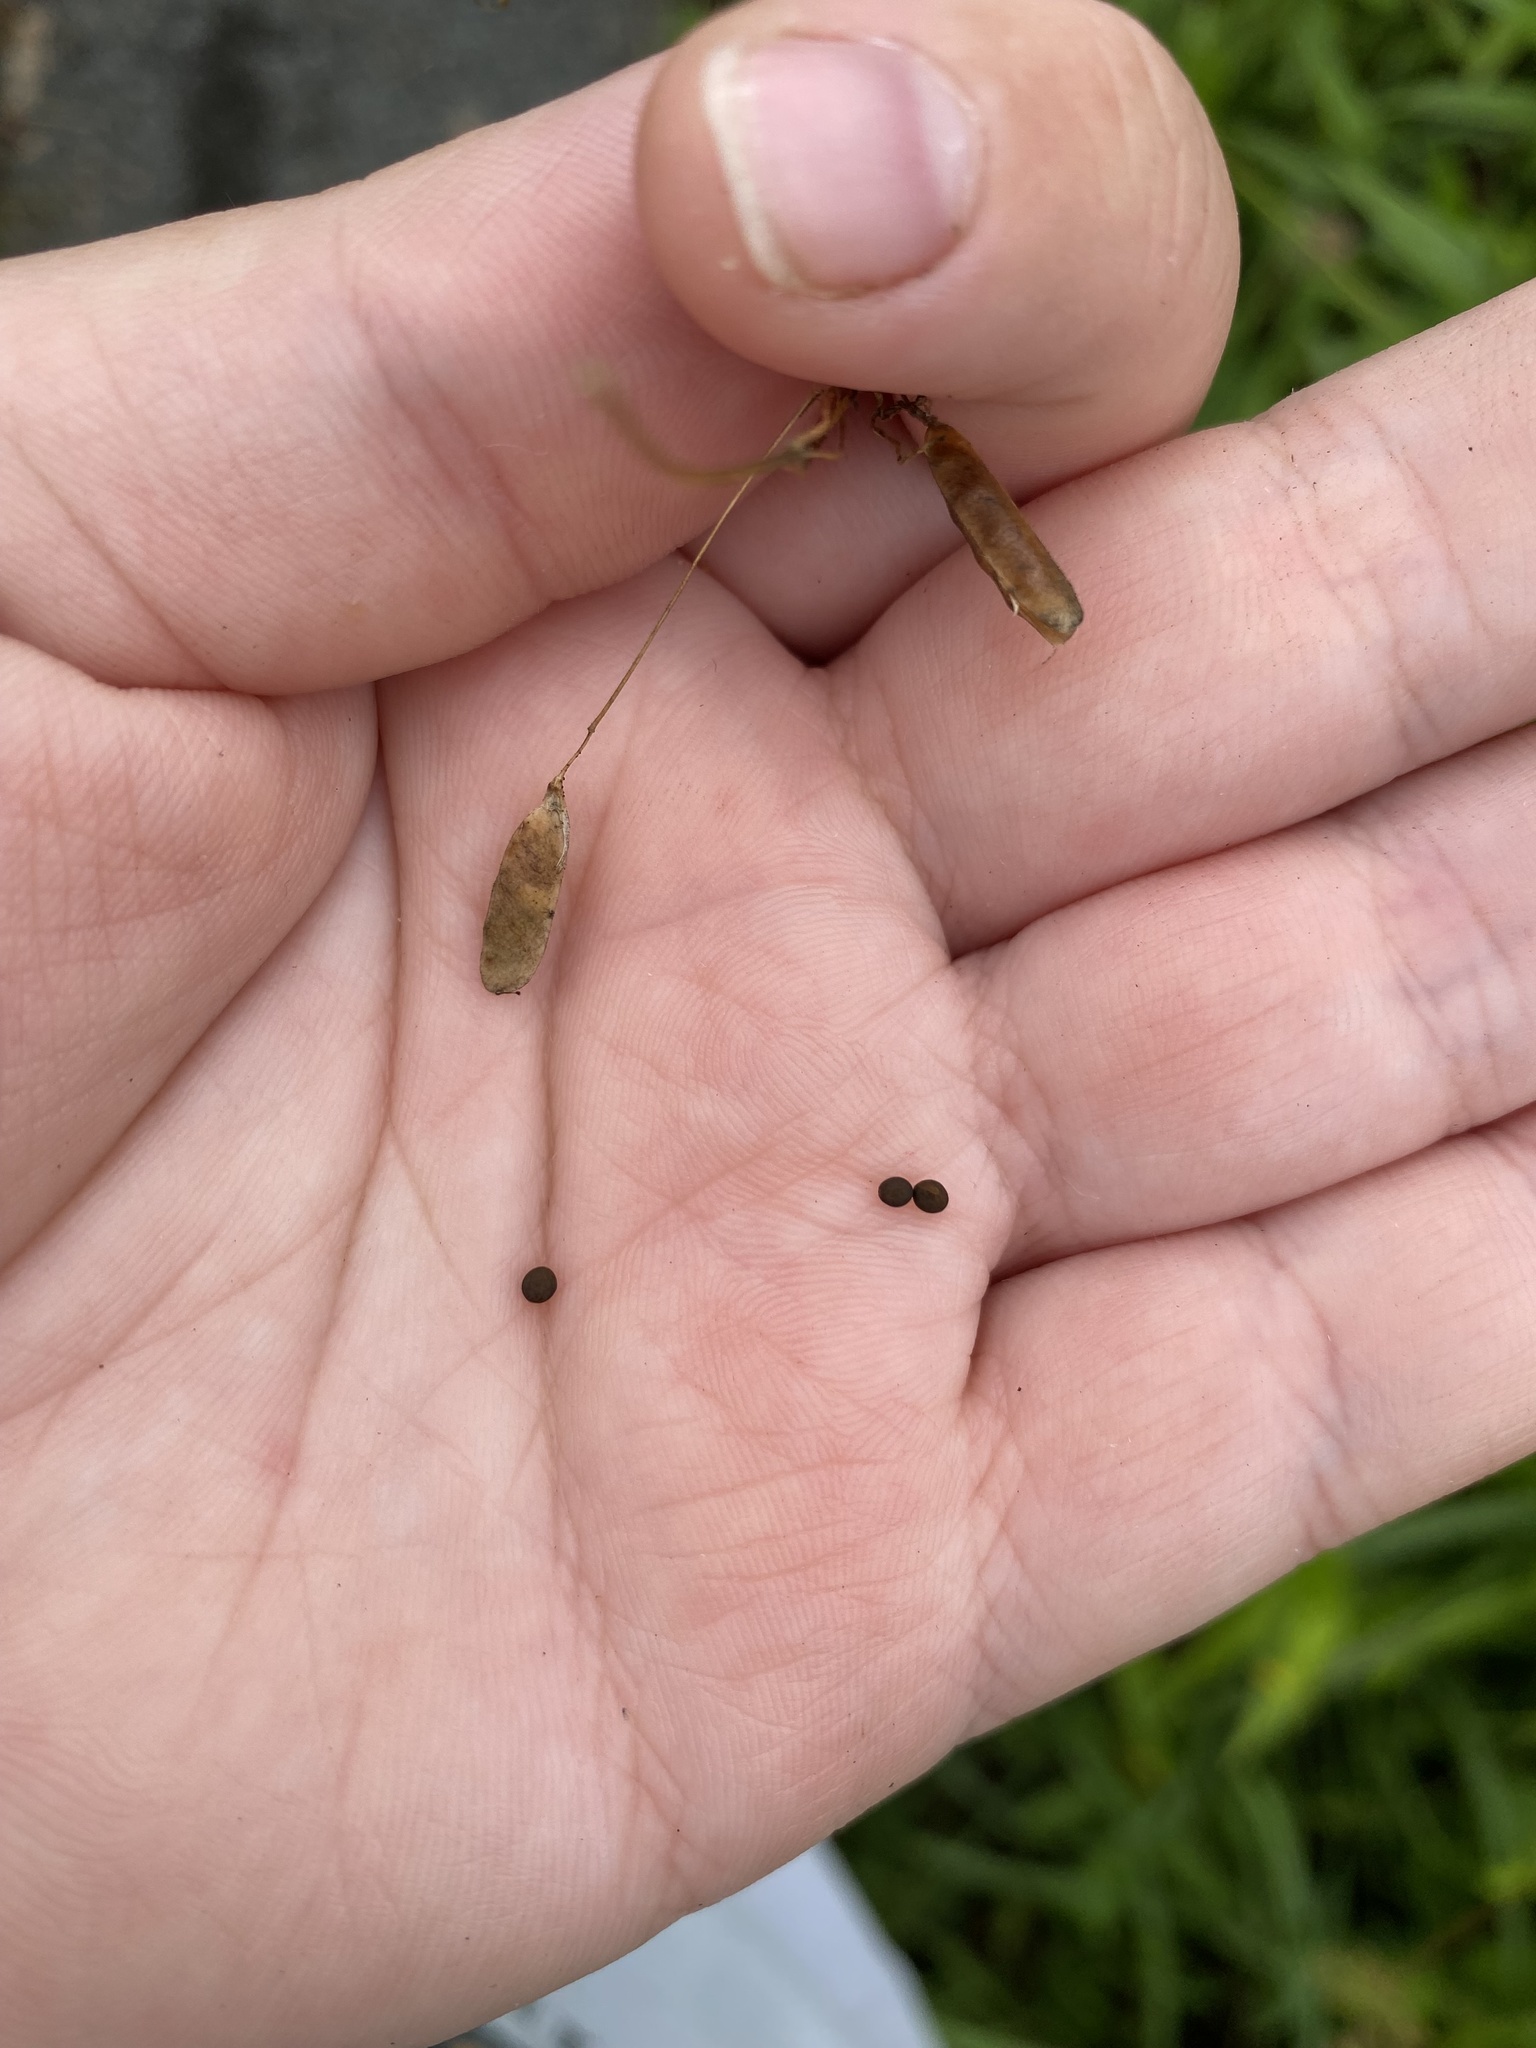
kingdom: Plantae
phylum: Tracheophyta
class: Magnoliopsida
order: Fabales
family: Fabaceae
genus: Vicia
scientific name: Vicia tetrasperma
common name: Smooth tare
